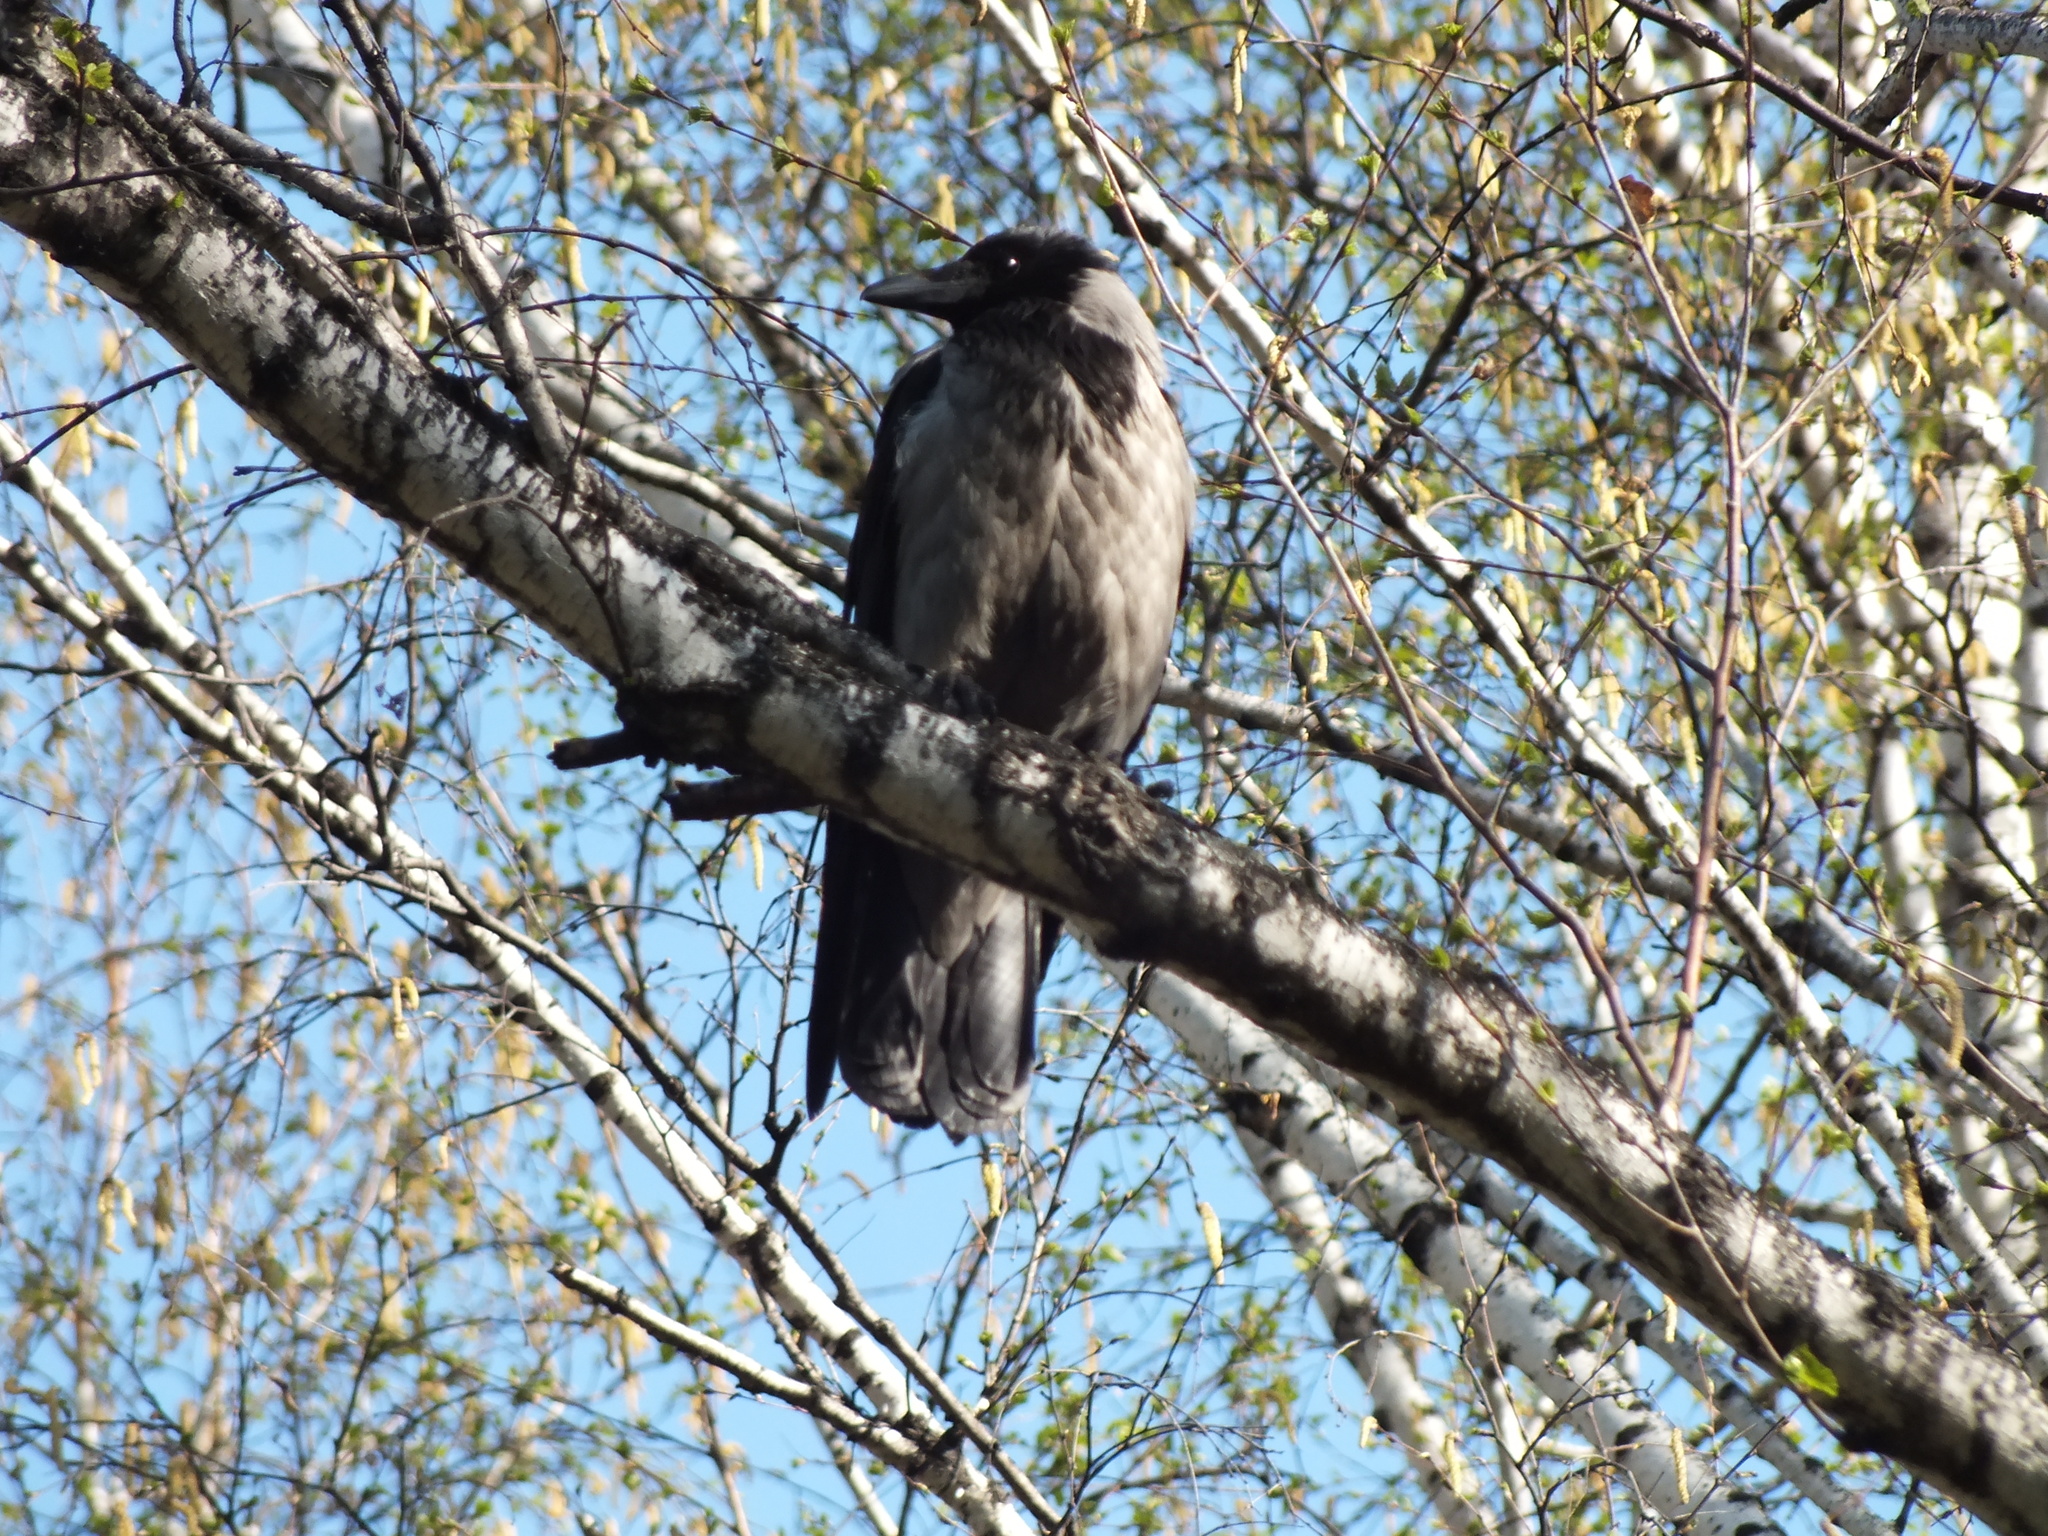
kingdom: Animalia
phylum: Chordata
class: Aves
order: Passeriformes
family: Corvidae
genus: Corvus
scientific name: Corvus cornix
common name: Hooded crow
